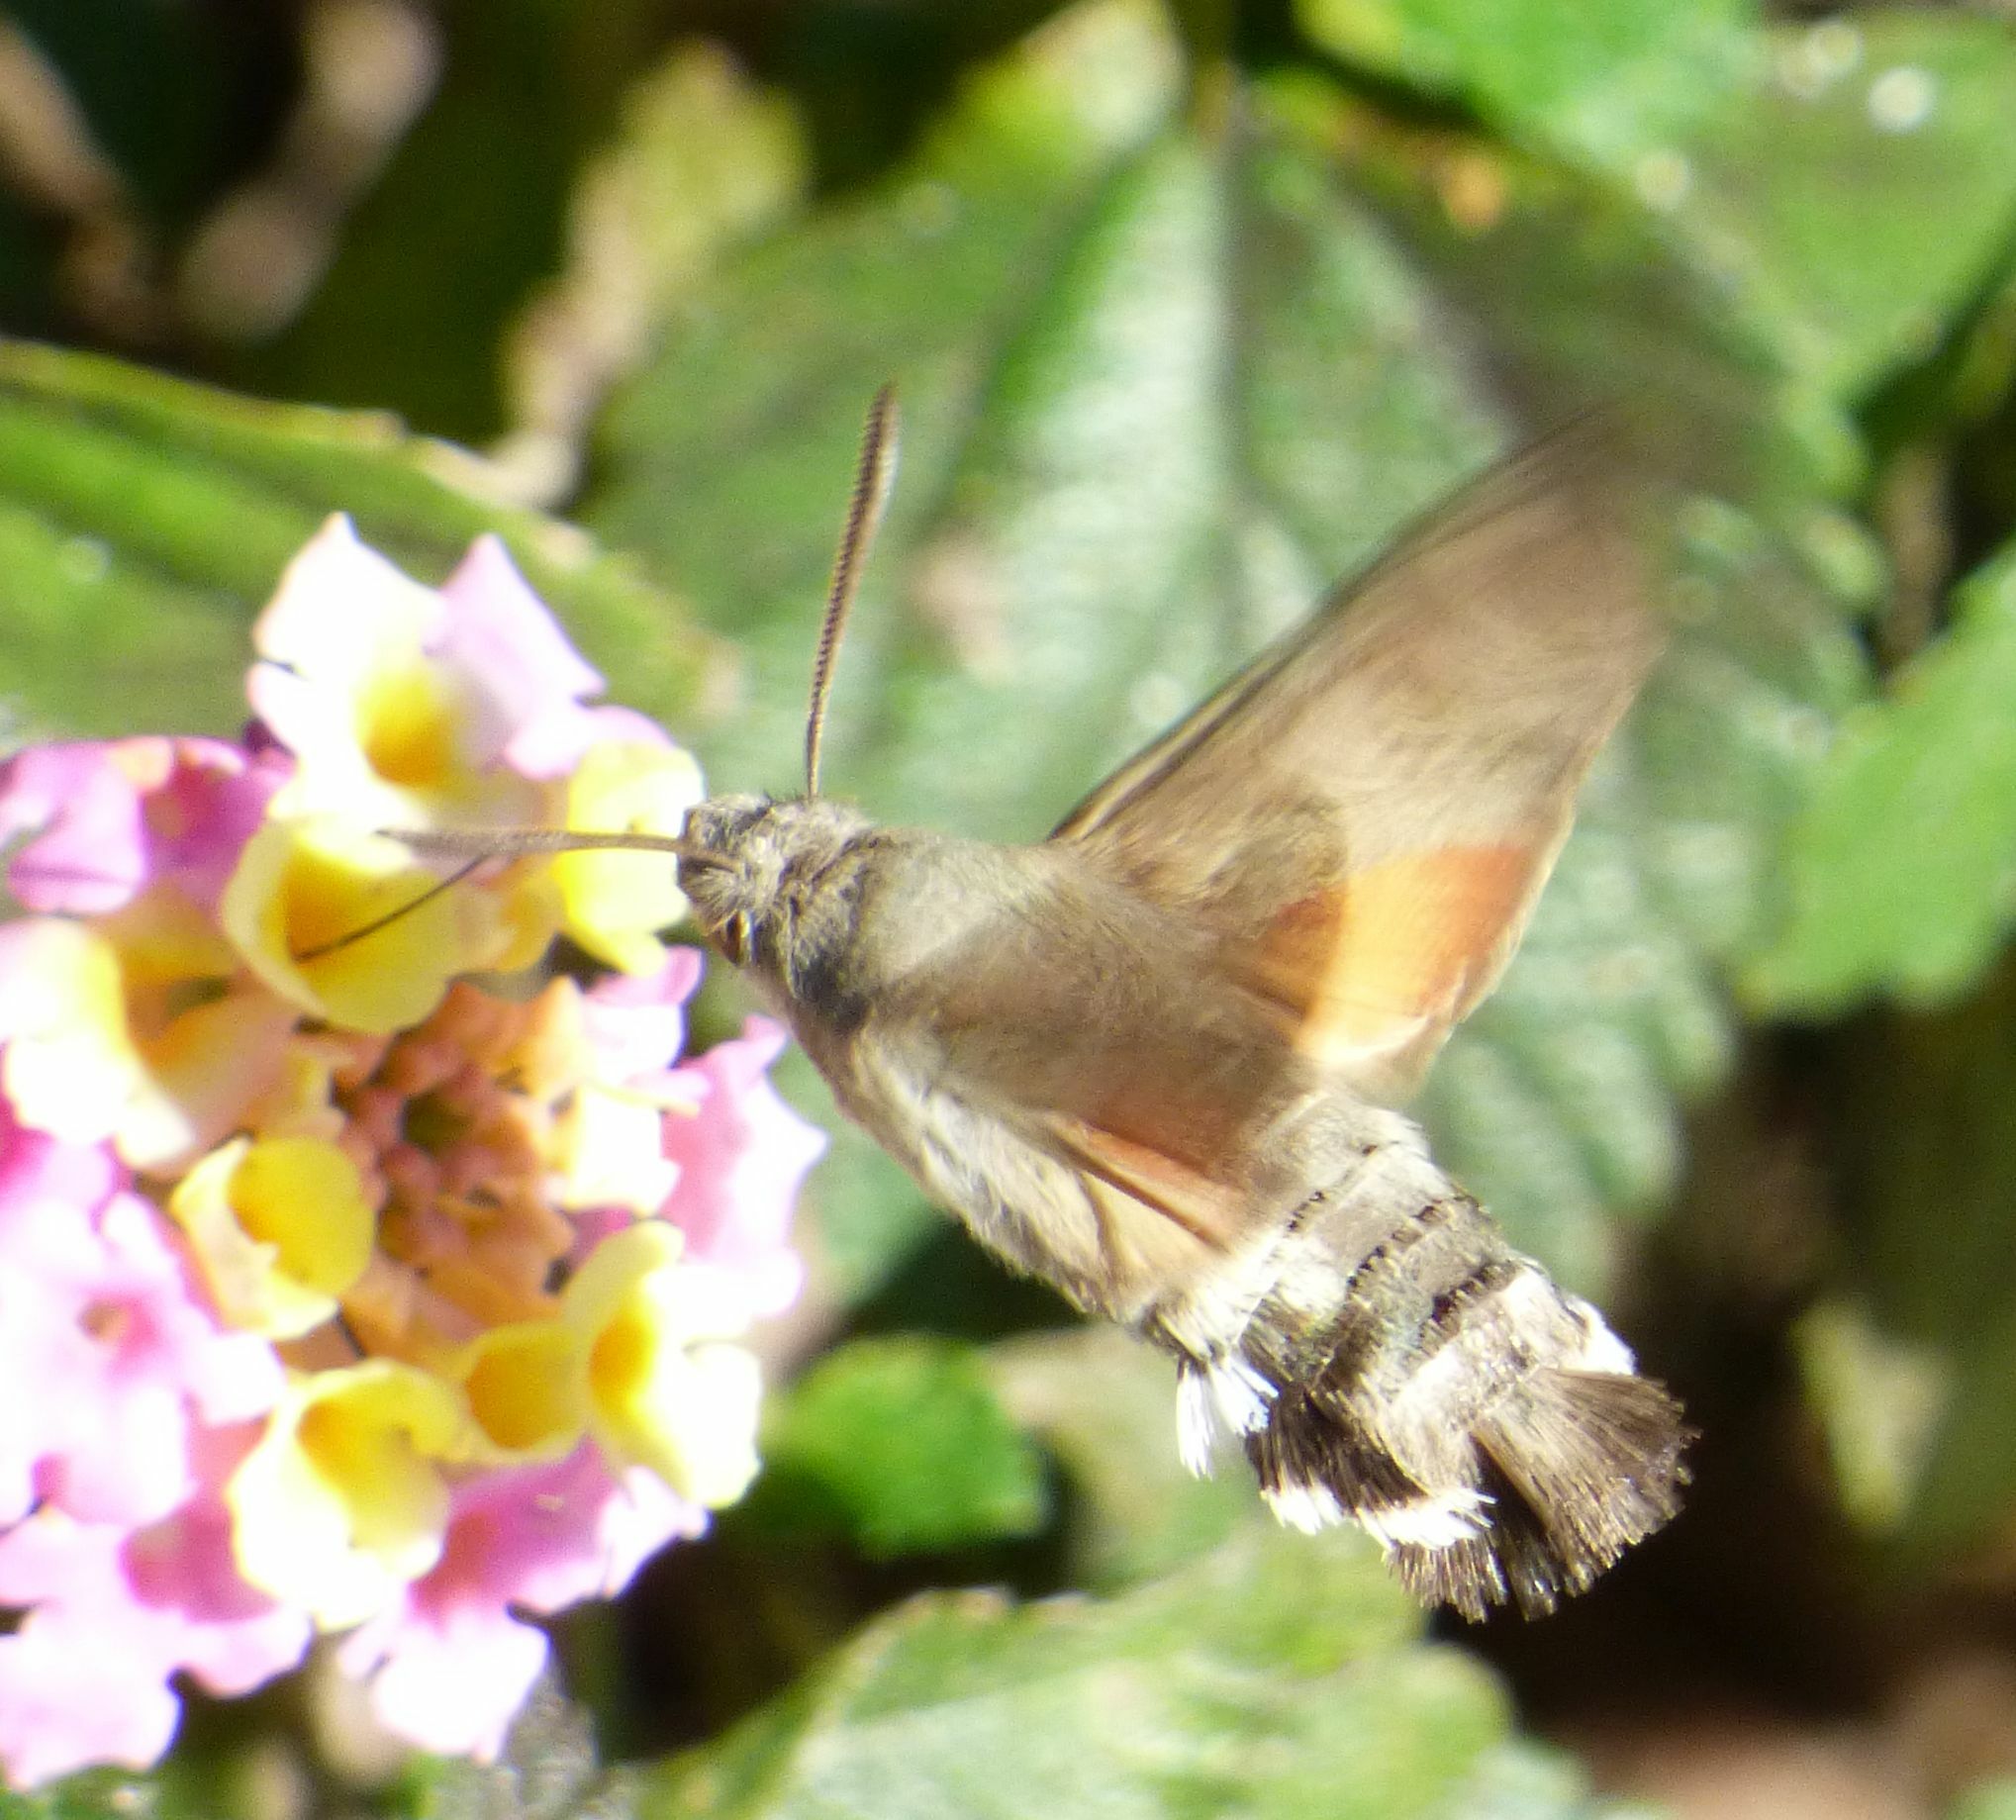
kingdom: Animalia
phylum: Arthropoda
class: Insecta
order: Lepidoptera
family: Sphingidae
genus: Macroglossum
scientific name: Macroglossum stellatarum
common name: Humming-bird hawk-moth
